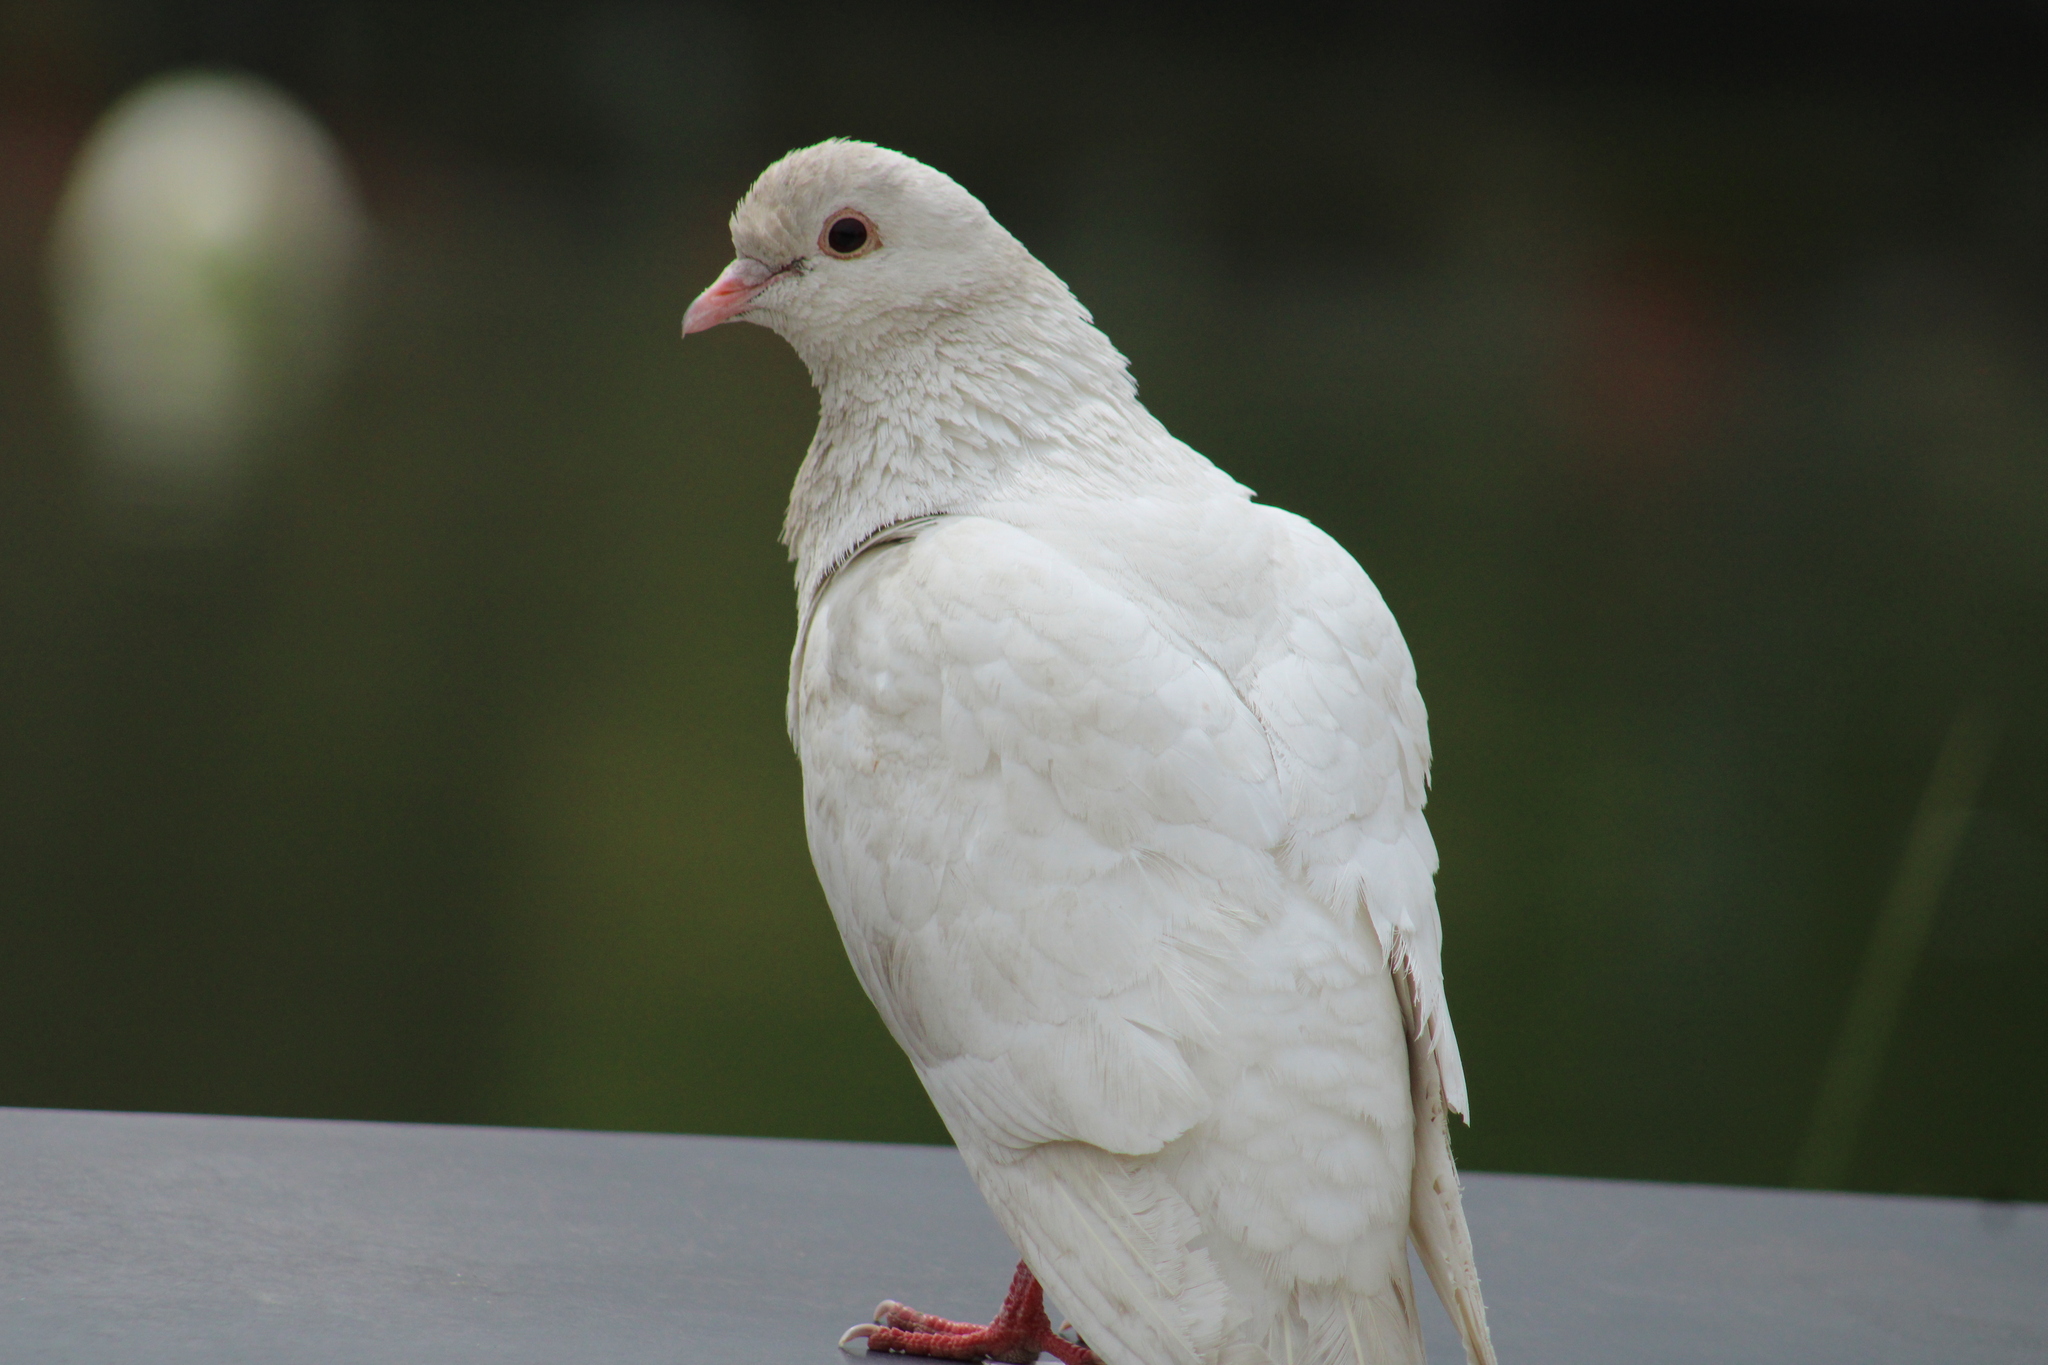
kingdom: Animalia
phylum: Chordata
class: Aves
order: Columbiformes
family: Columbidae
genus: Columba
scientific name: Columba livia
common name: Rock pigeon
